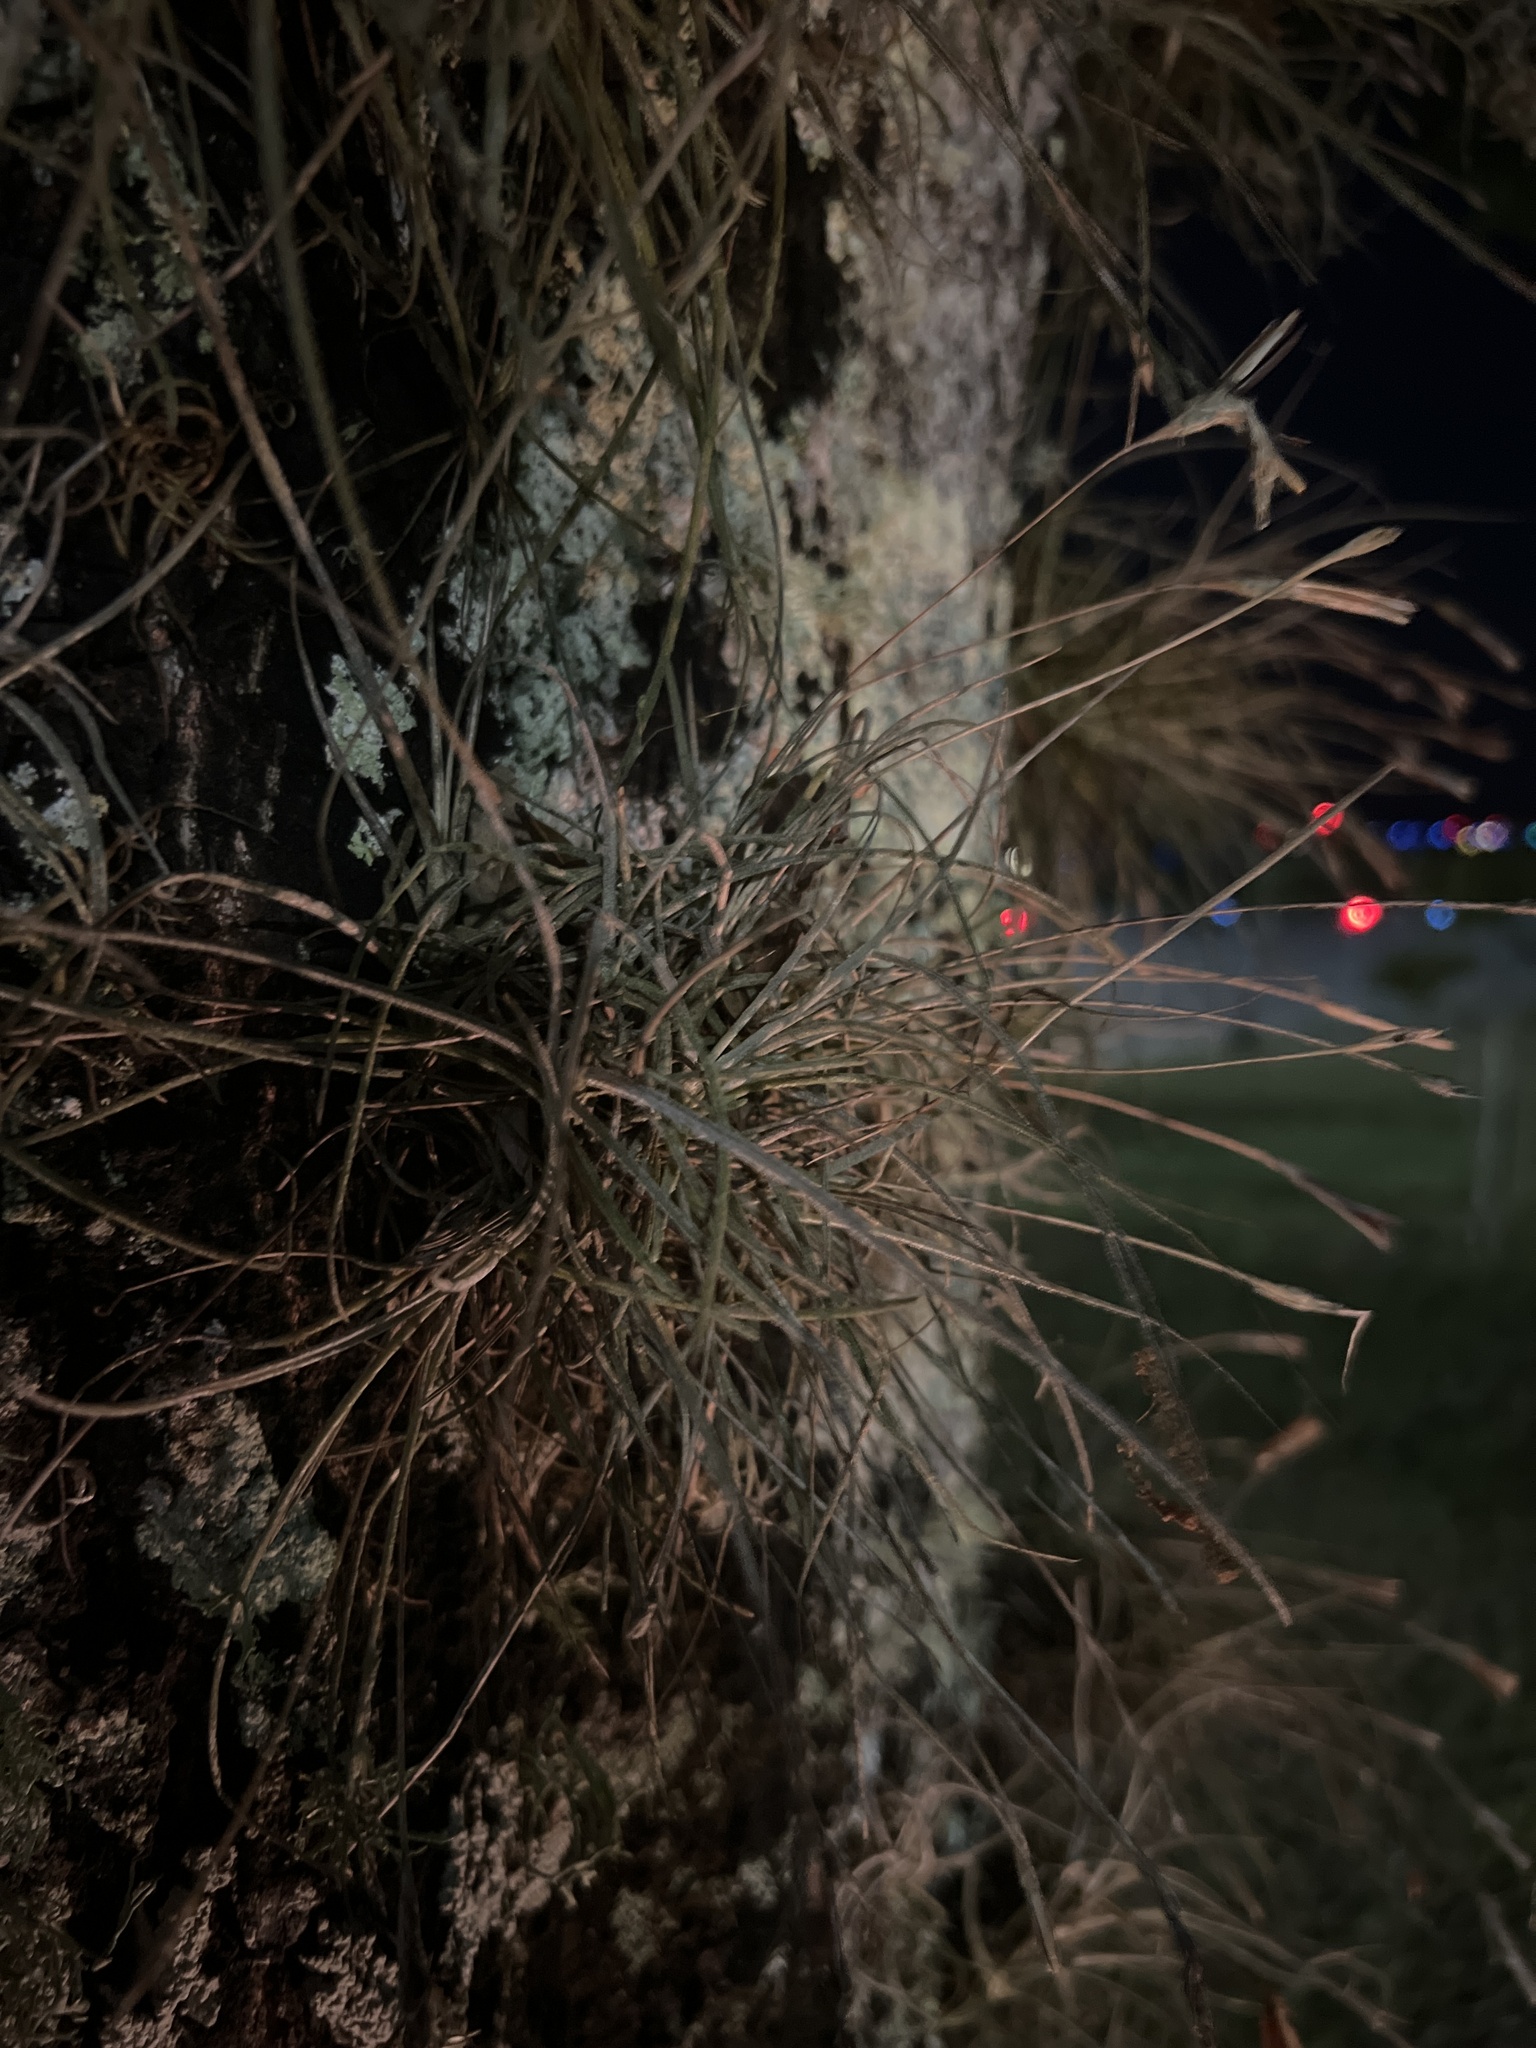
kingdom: Plantae
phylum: Tracheophyta
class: Liliopsida
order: Poales
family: Bromeliaceae
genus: Tillandsia
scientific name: Tillandsia recurvata
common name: Small ballmoss
